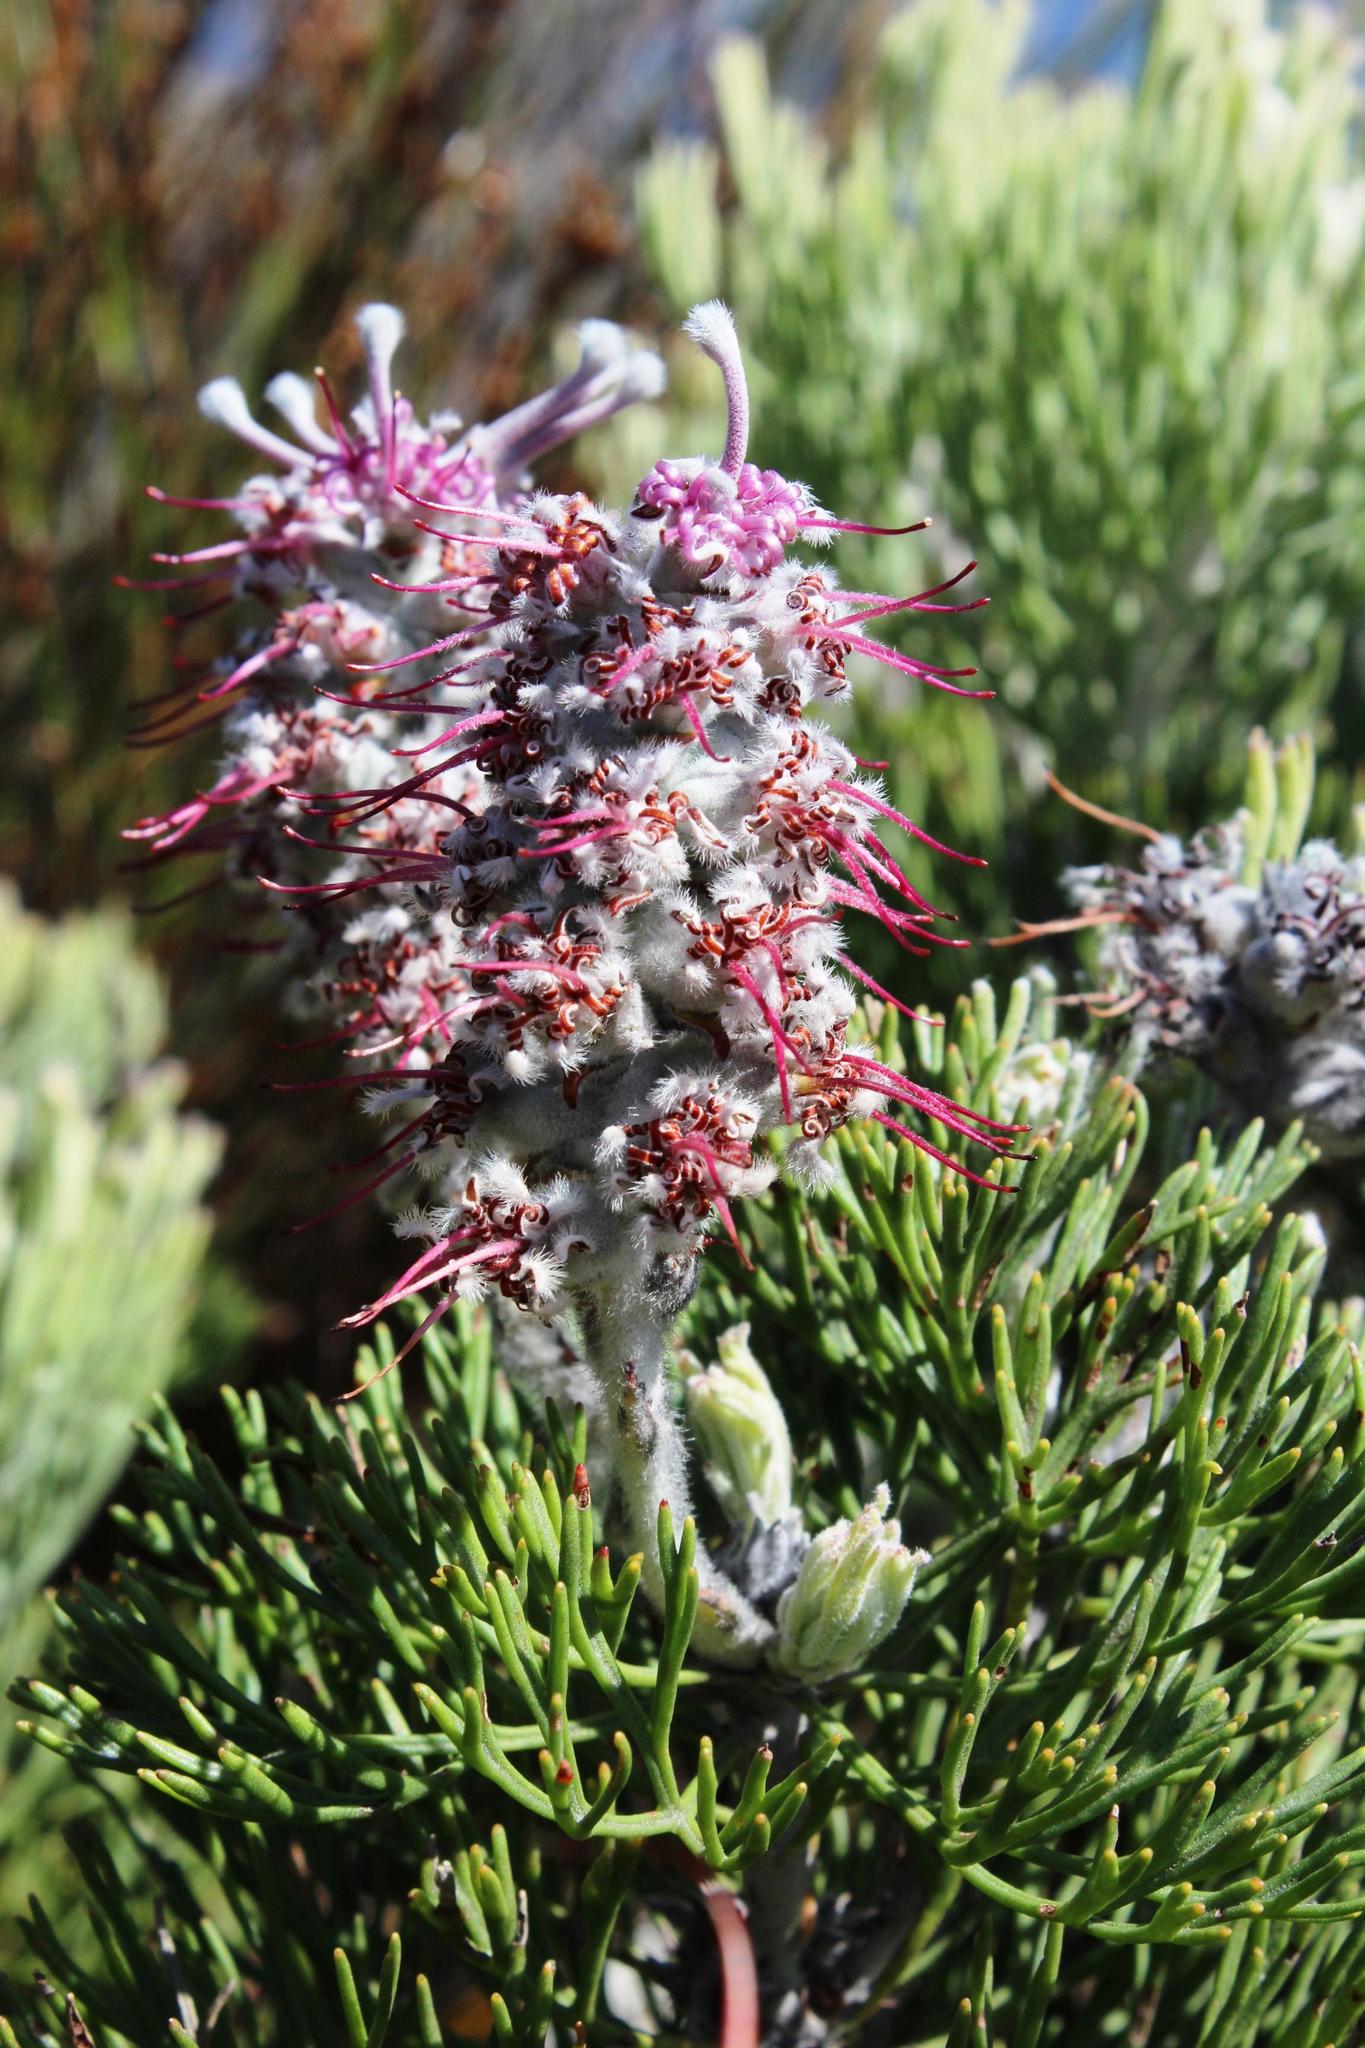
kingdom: Plantae
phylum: Tracheophyta
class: Magnoliopsida
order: Proteales
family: Proteaceae
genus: Paranomus
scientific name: Paranomus bolusii
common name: Overberg sceptre
